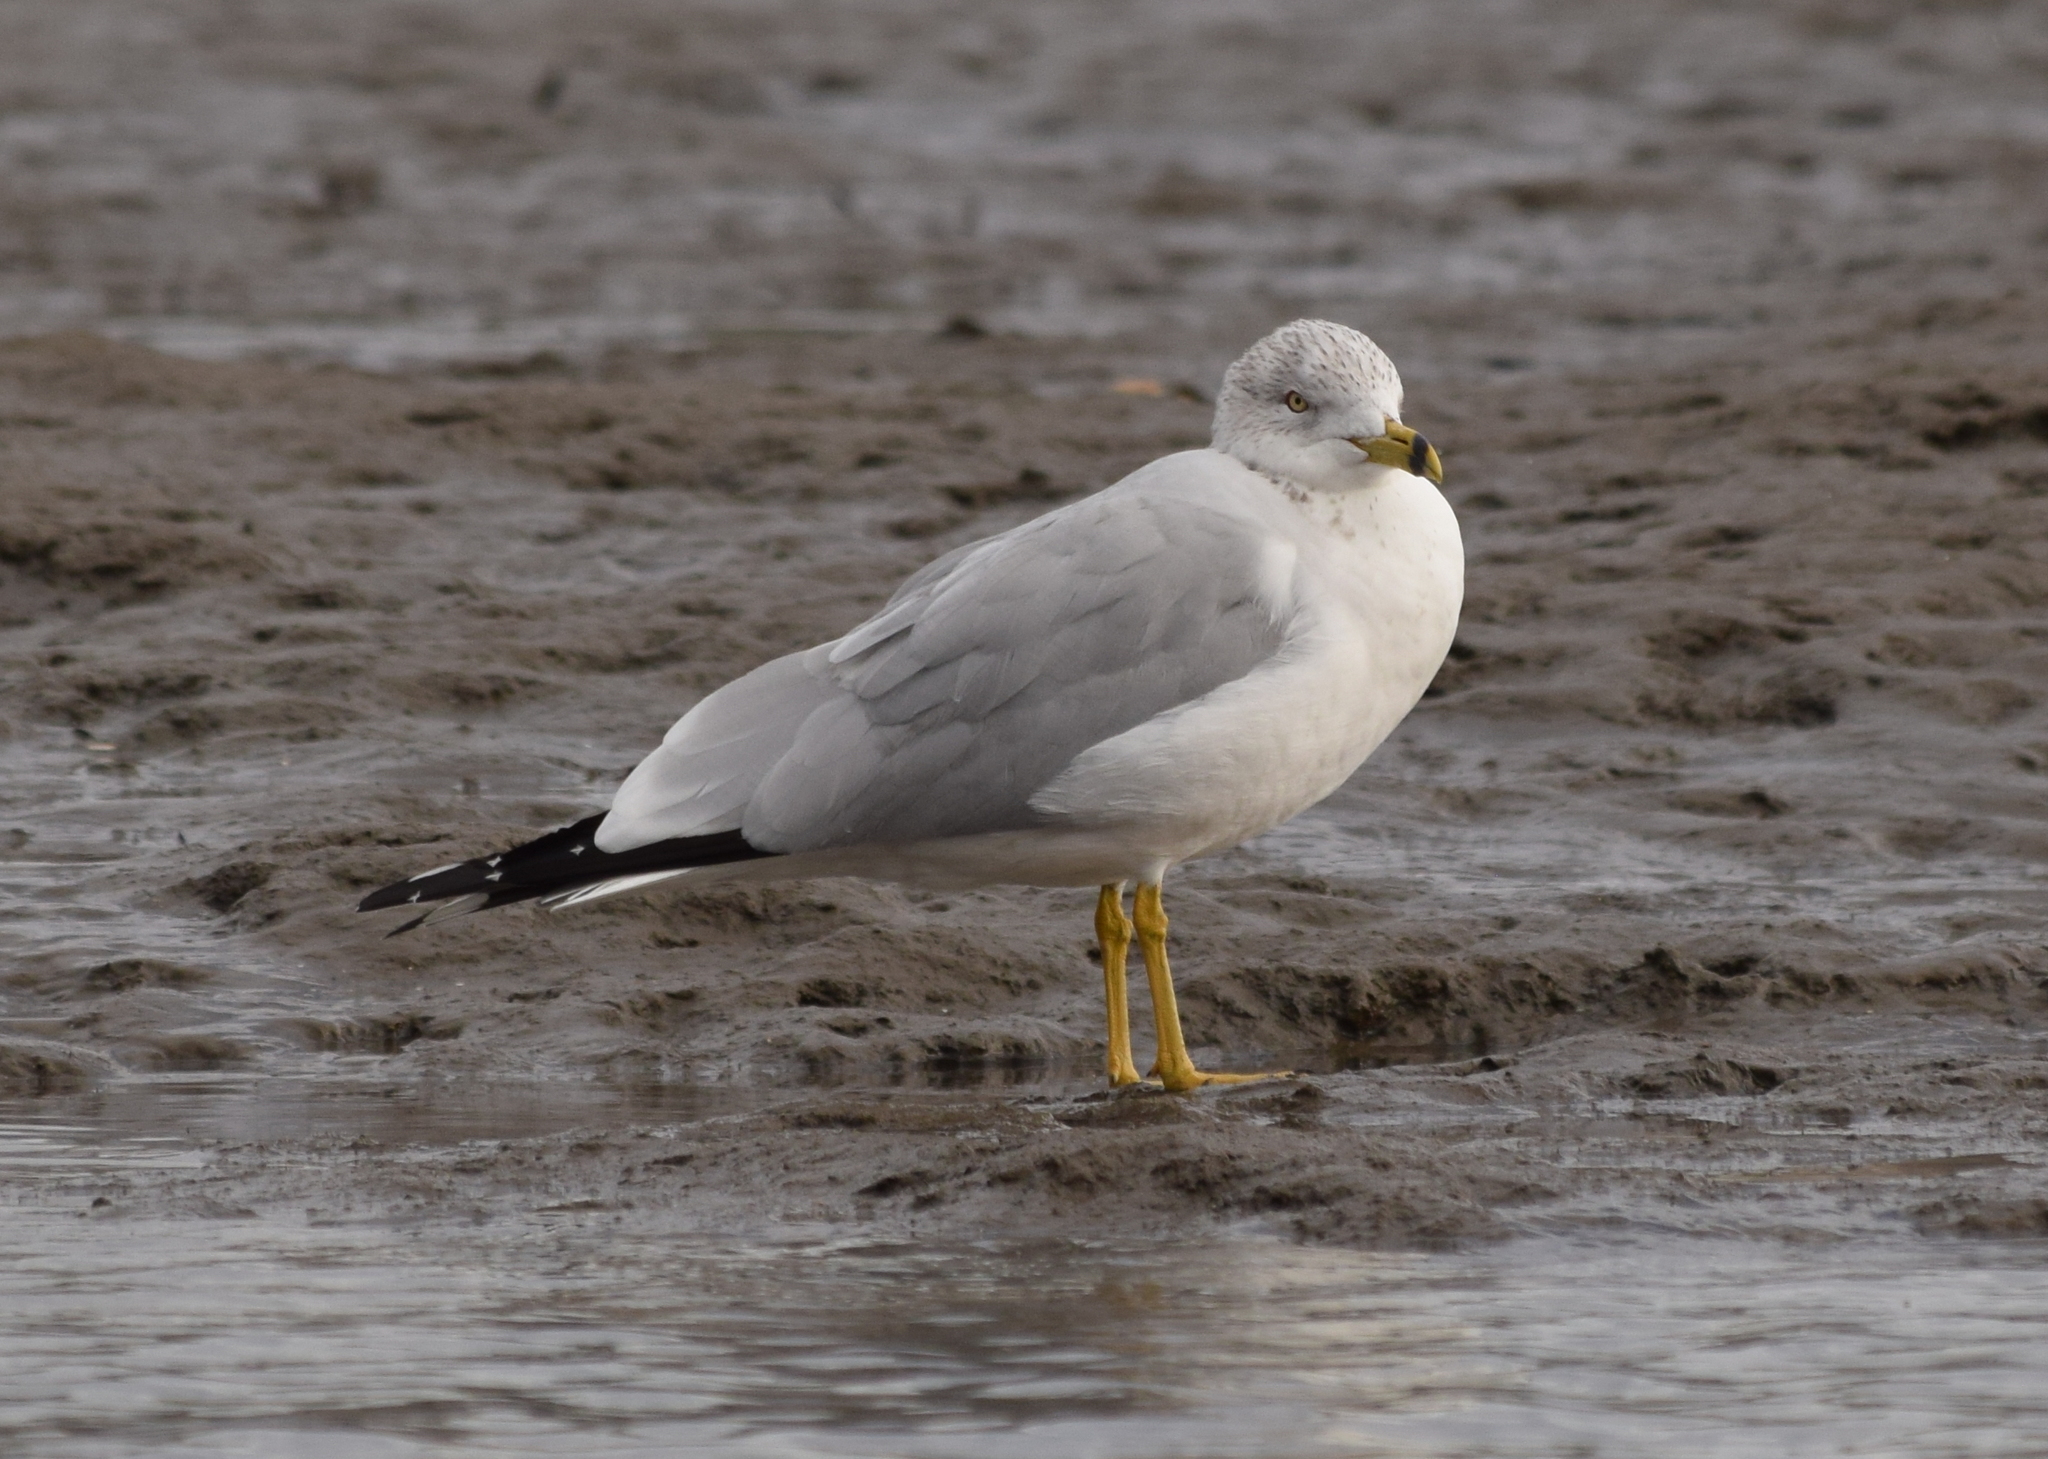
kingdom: Animalia
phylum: Chordata
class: Aves
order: Charadriiformes
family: Laridae
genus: Larus
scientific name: Larus delawarensis
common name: Ring-billed gull
